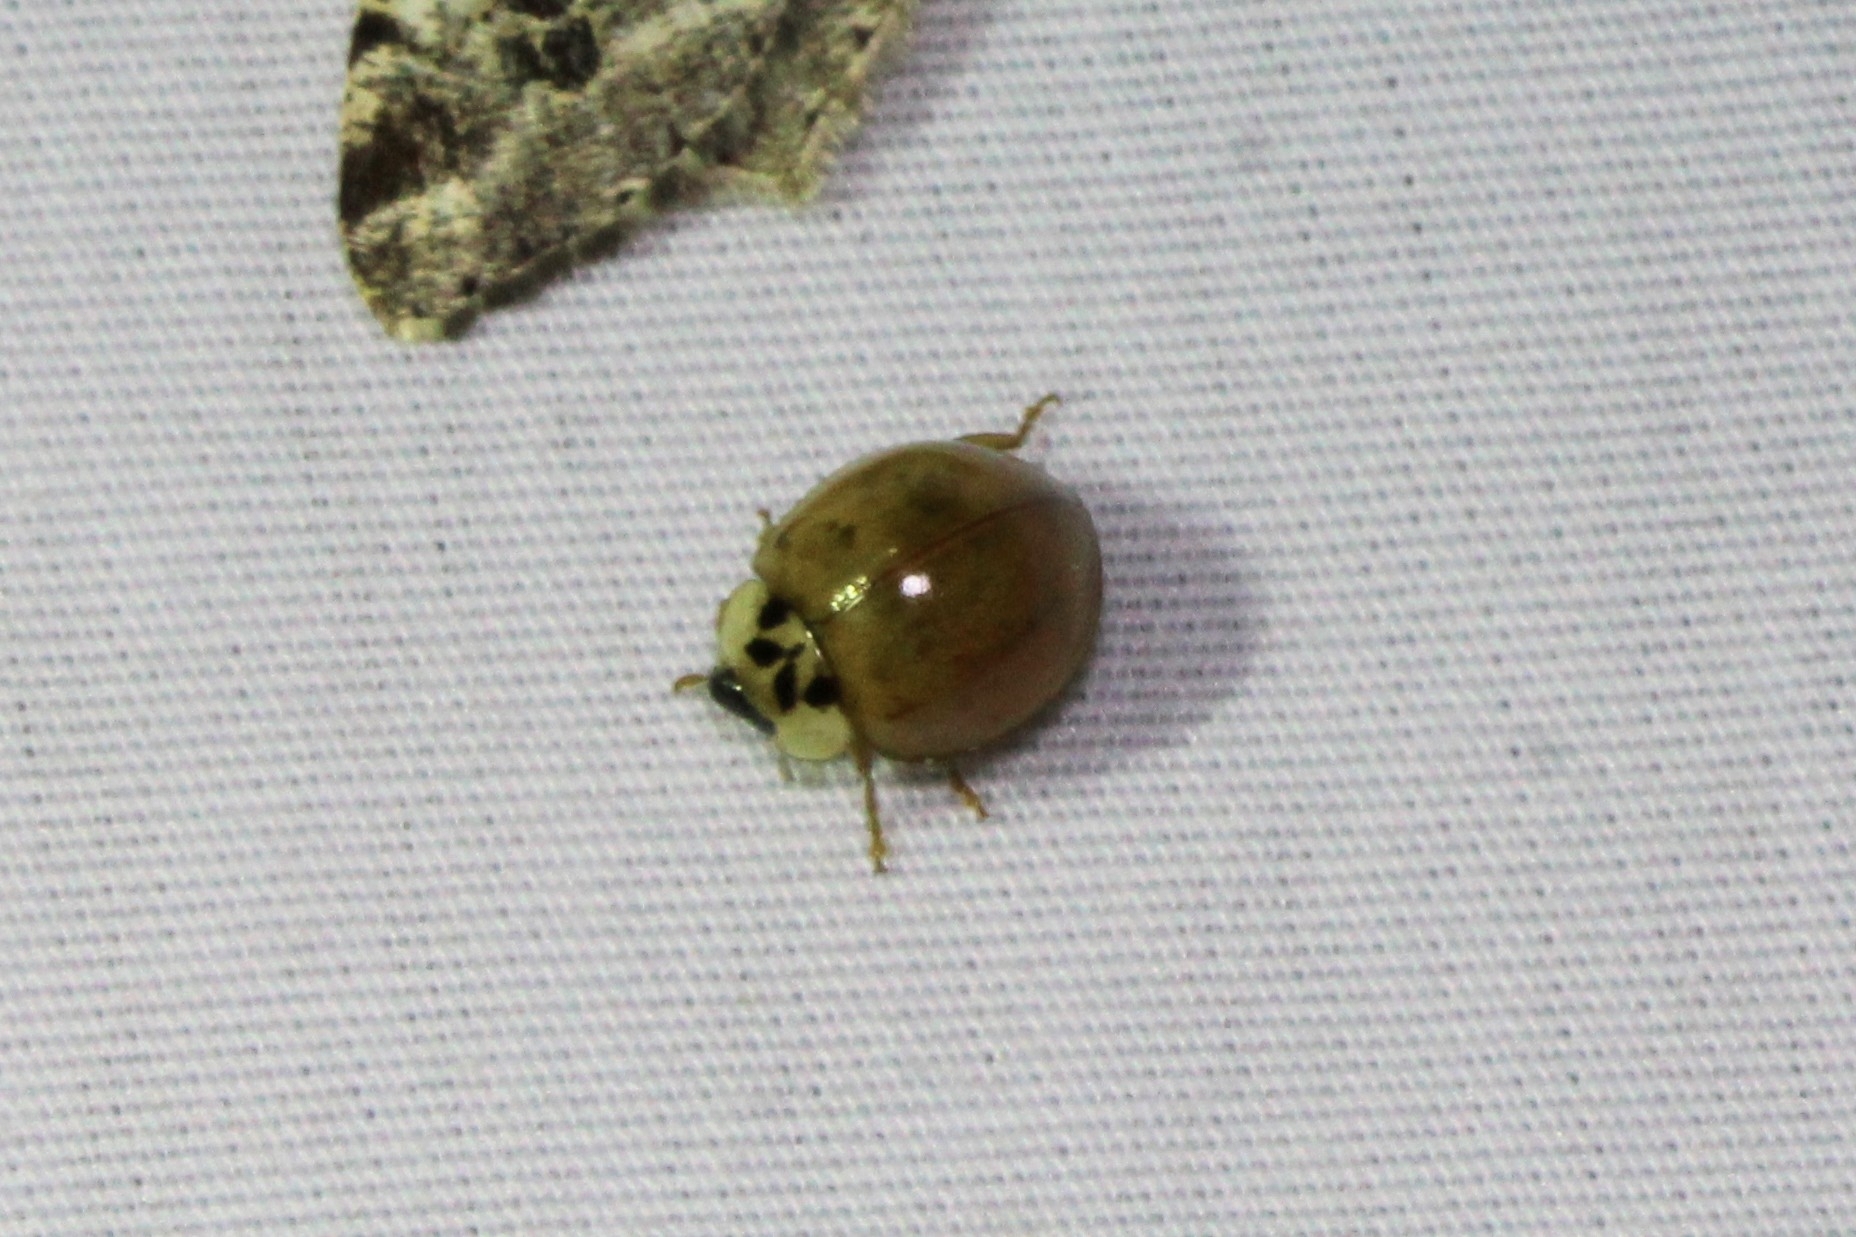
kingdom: Animalia
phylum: Arthropoda
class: Insecta
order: Coleoptera
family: Coccinellidae
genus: Harmonia
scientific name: Harmonia axyridis
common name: Harlequin ladybird
